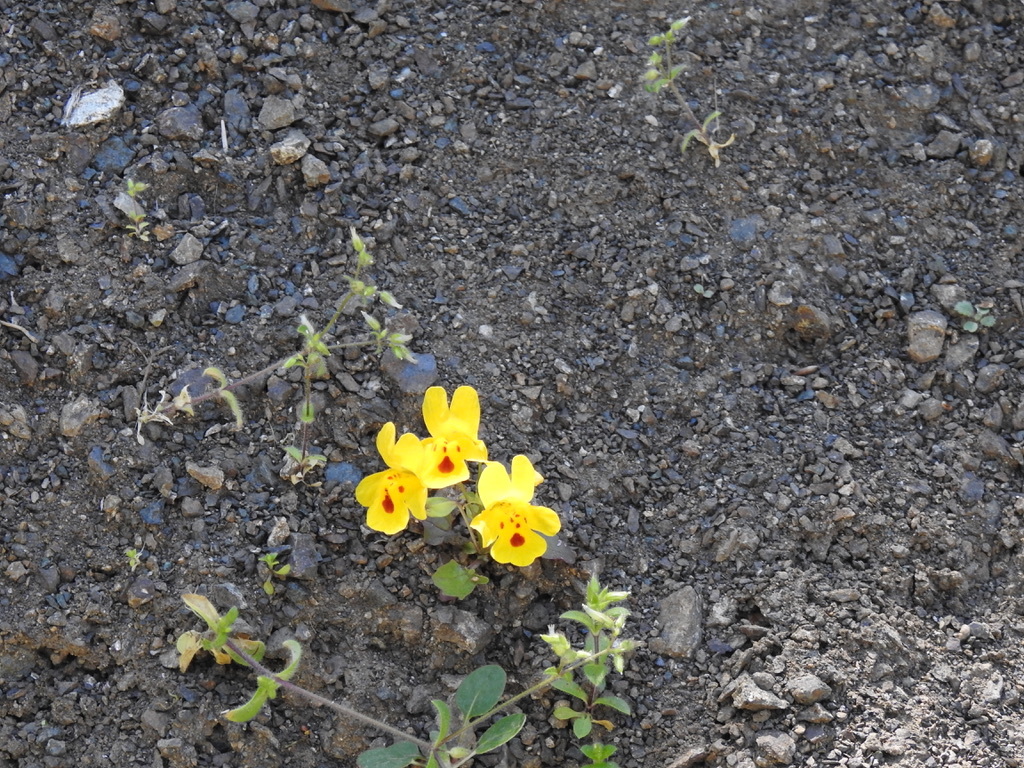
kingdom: Plantae
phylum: Tracheophyta
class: Magnoliopsida
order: Lamiales
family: Phrymaceae
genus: Erythranthe
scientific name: Erythranthe guttata
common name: Monkeyflower
